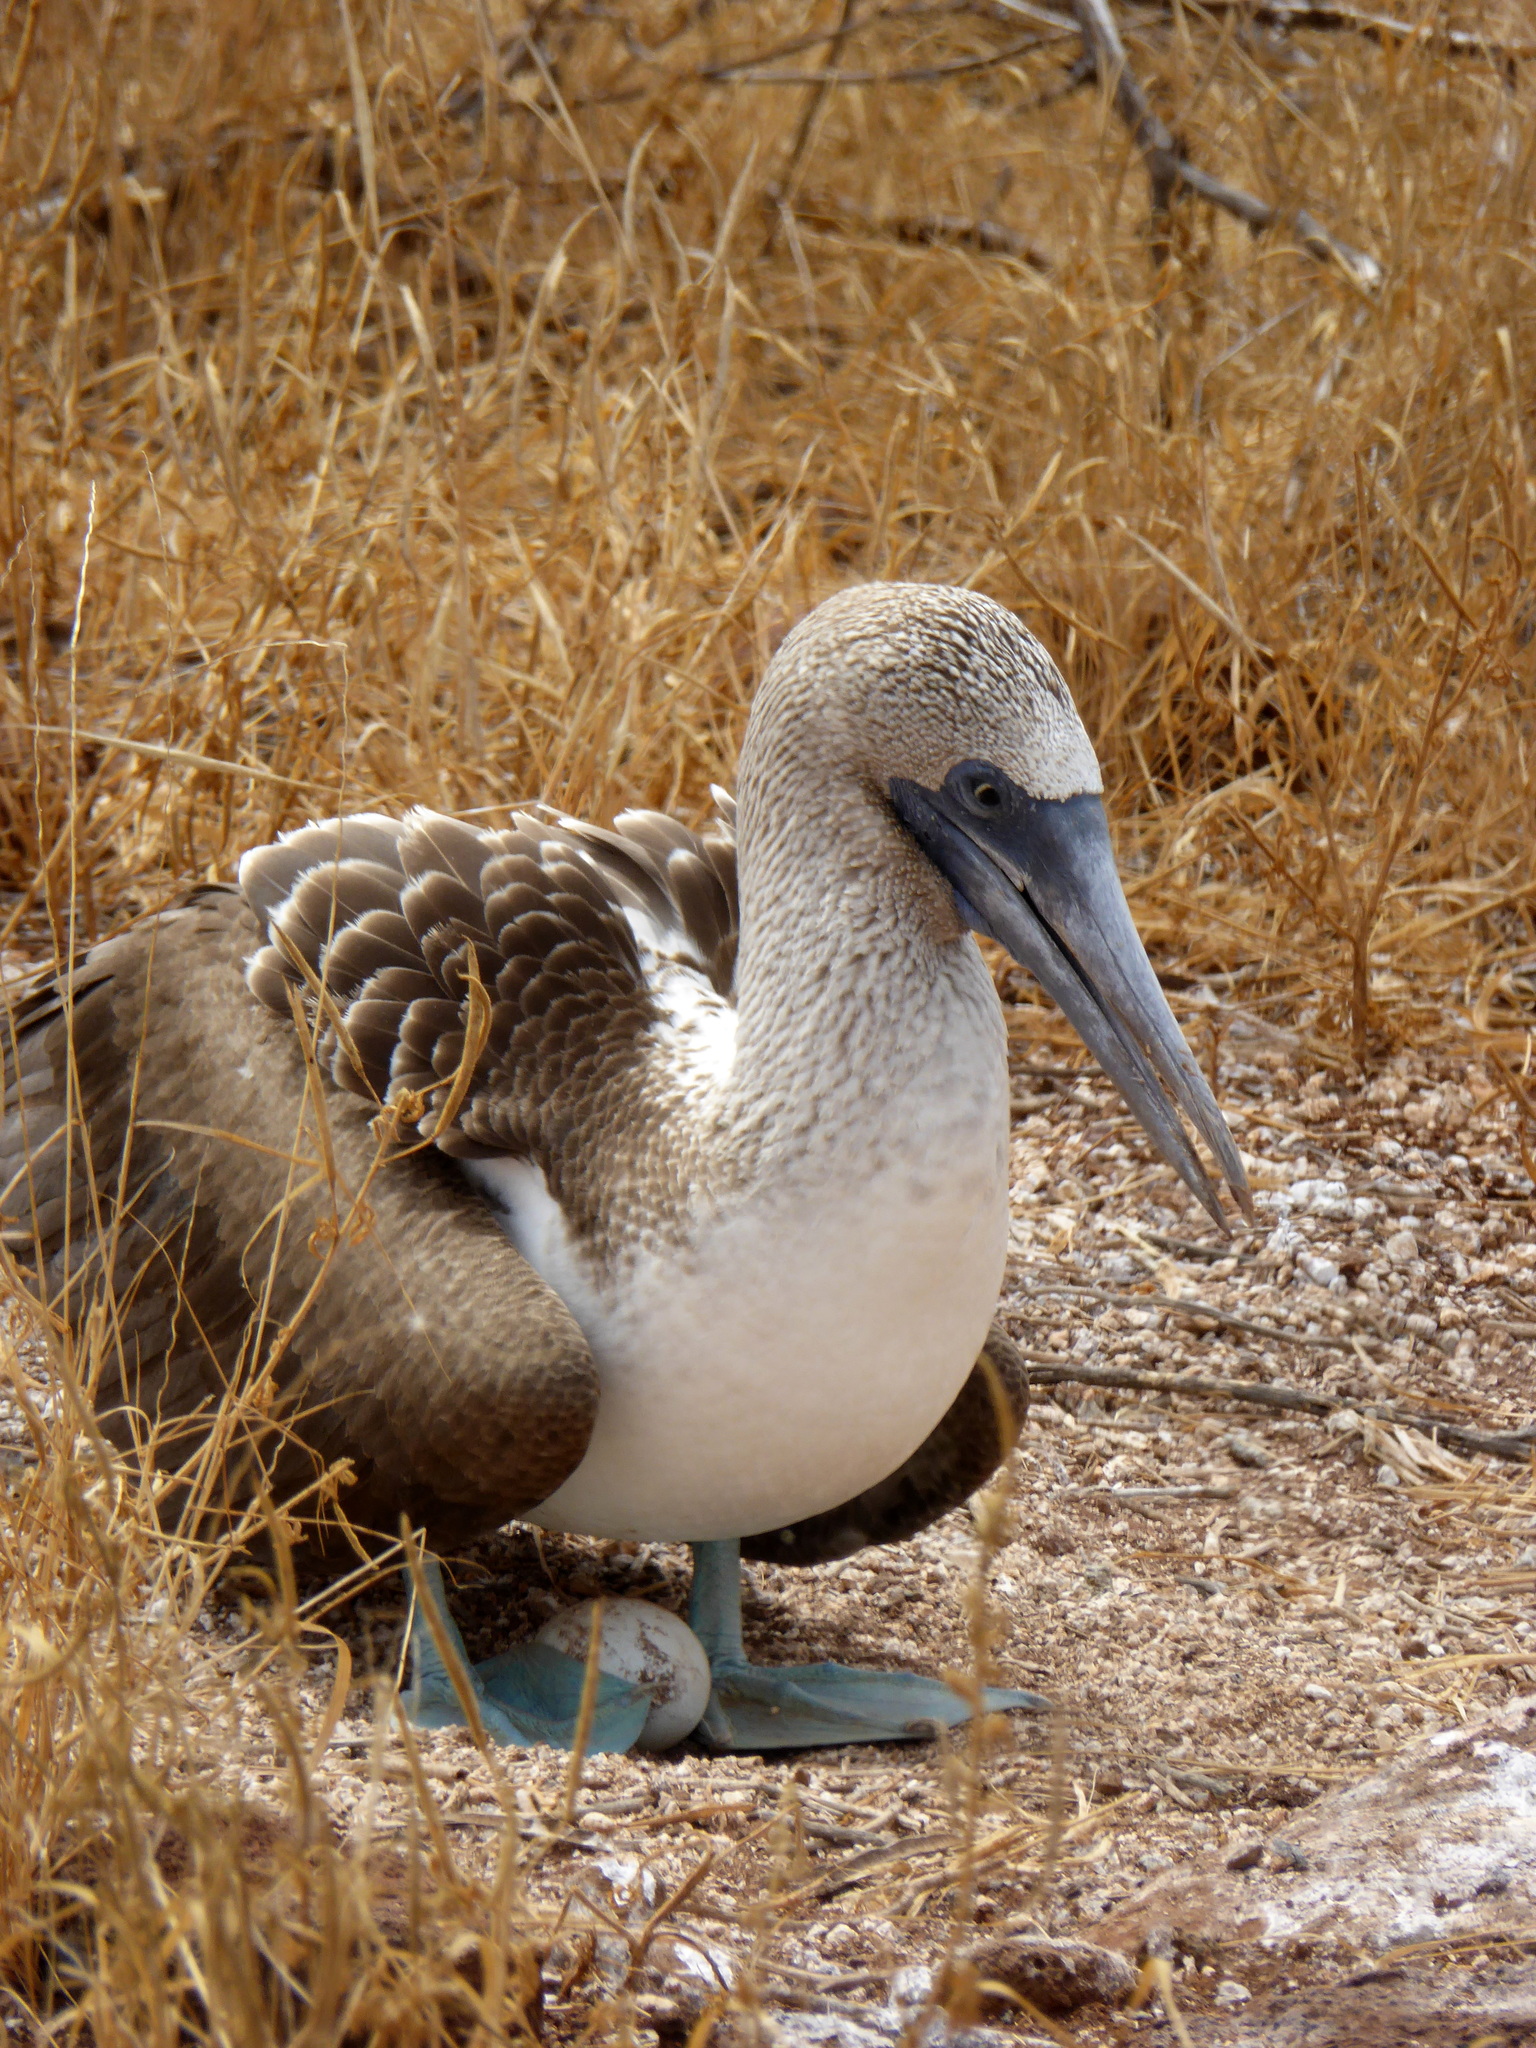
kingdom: Animalia
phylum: Chordata
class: Aves
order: Suliformes
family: Sulidae
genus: Sula
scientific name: Sula nebouxii
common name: Blue-footed booby
